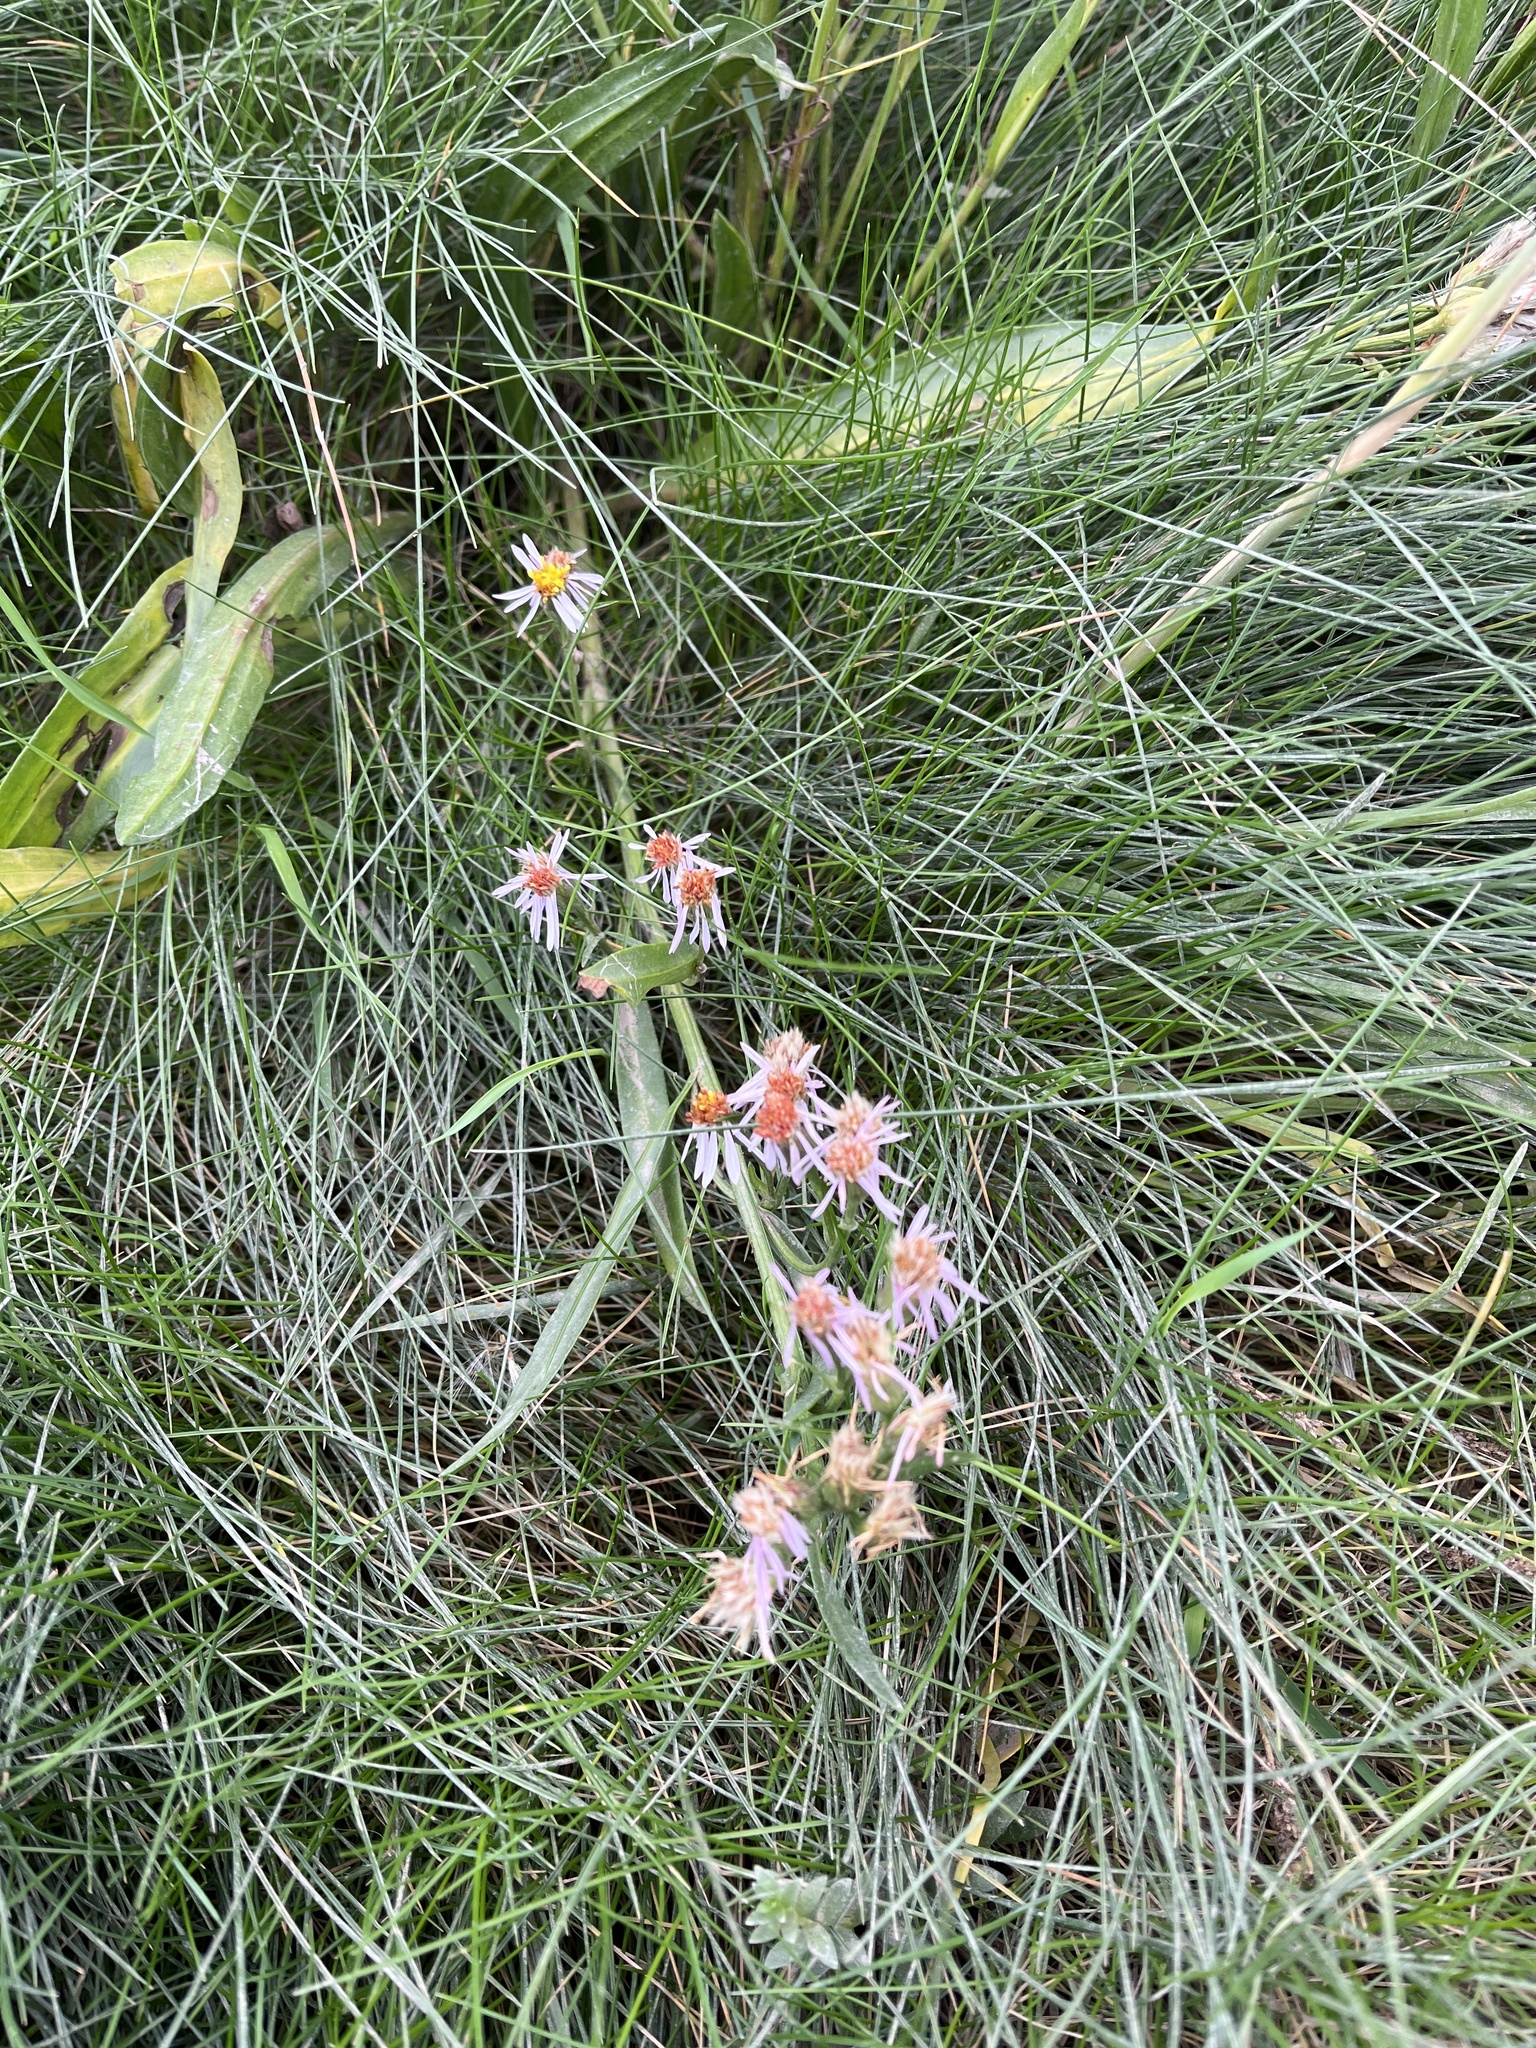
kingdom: Plantae
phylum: Tracheophyta
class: Magnoliopsida
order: Asterales
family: Asteraceae
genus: Tripolium
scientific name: Tripolium pannonicum
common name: Sea aster
